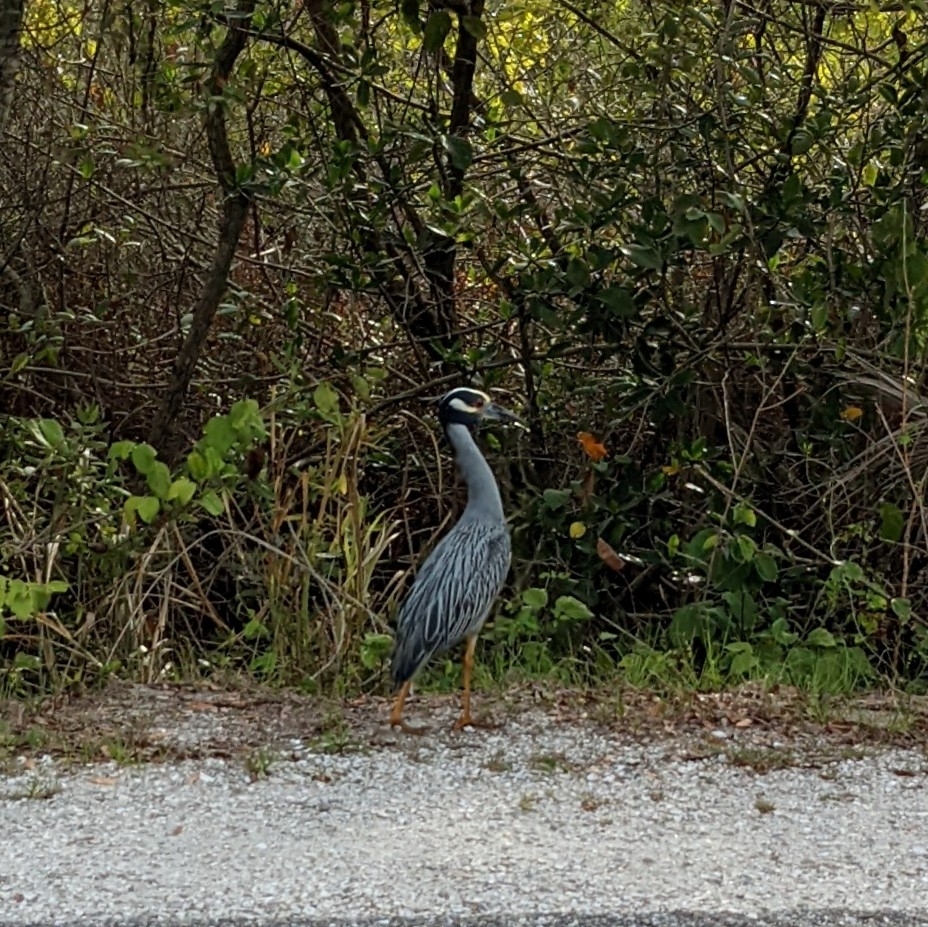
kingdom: Animalia
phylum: Chordata
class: Aves
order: Pelecaniformes
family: Ardeidae
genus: Nyctanassa
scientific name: Nyctanassa violacea
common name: Yellow-crowned night heron
